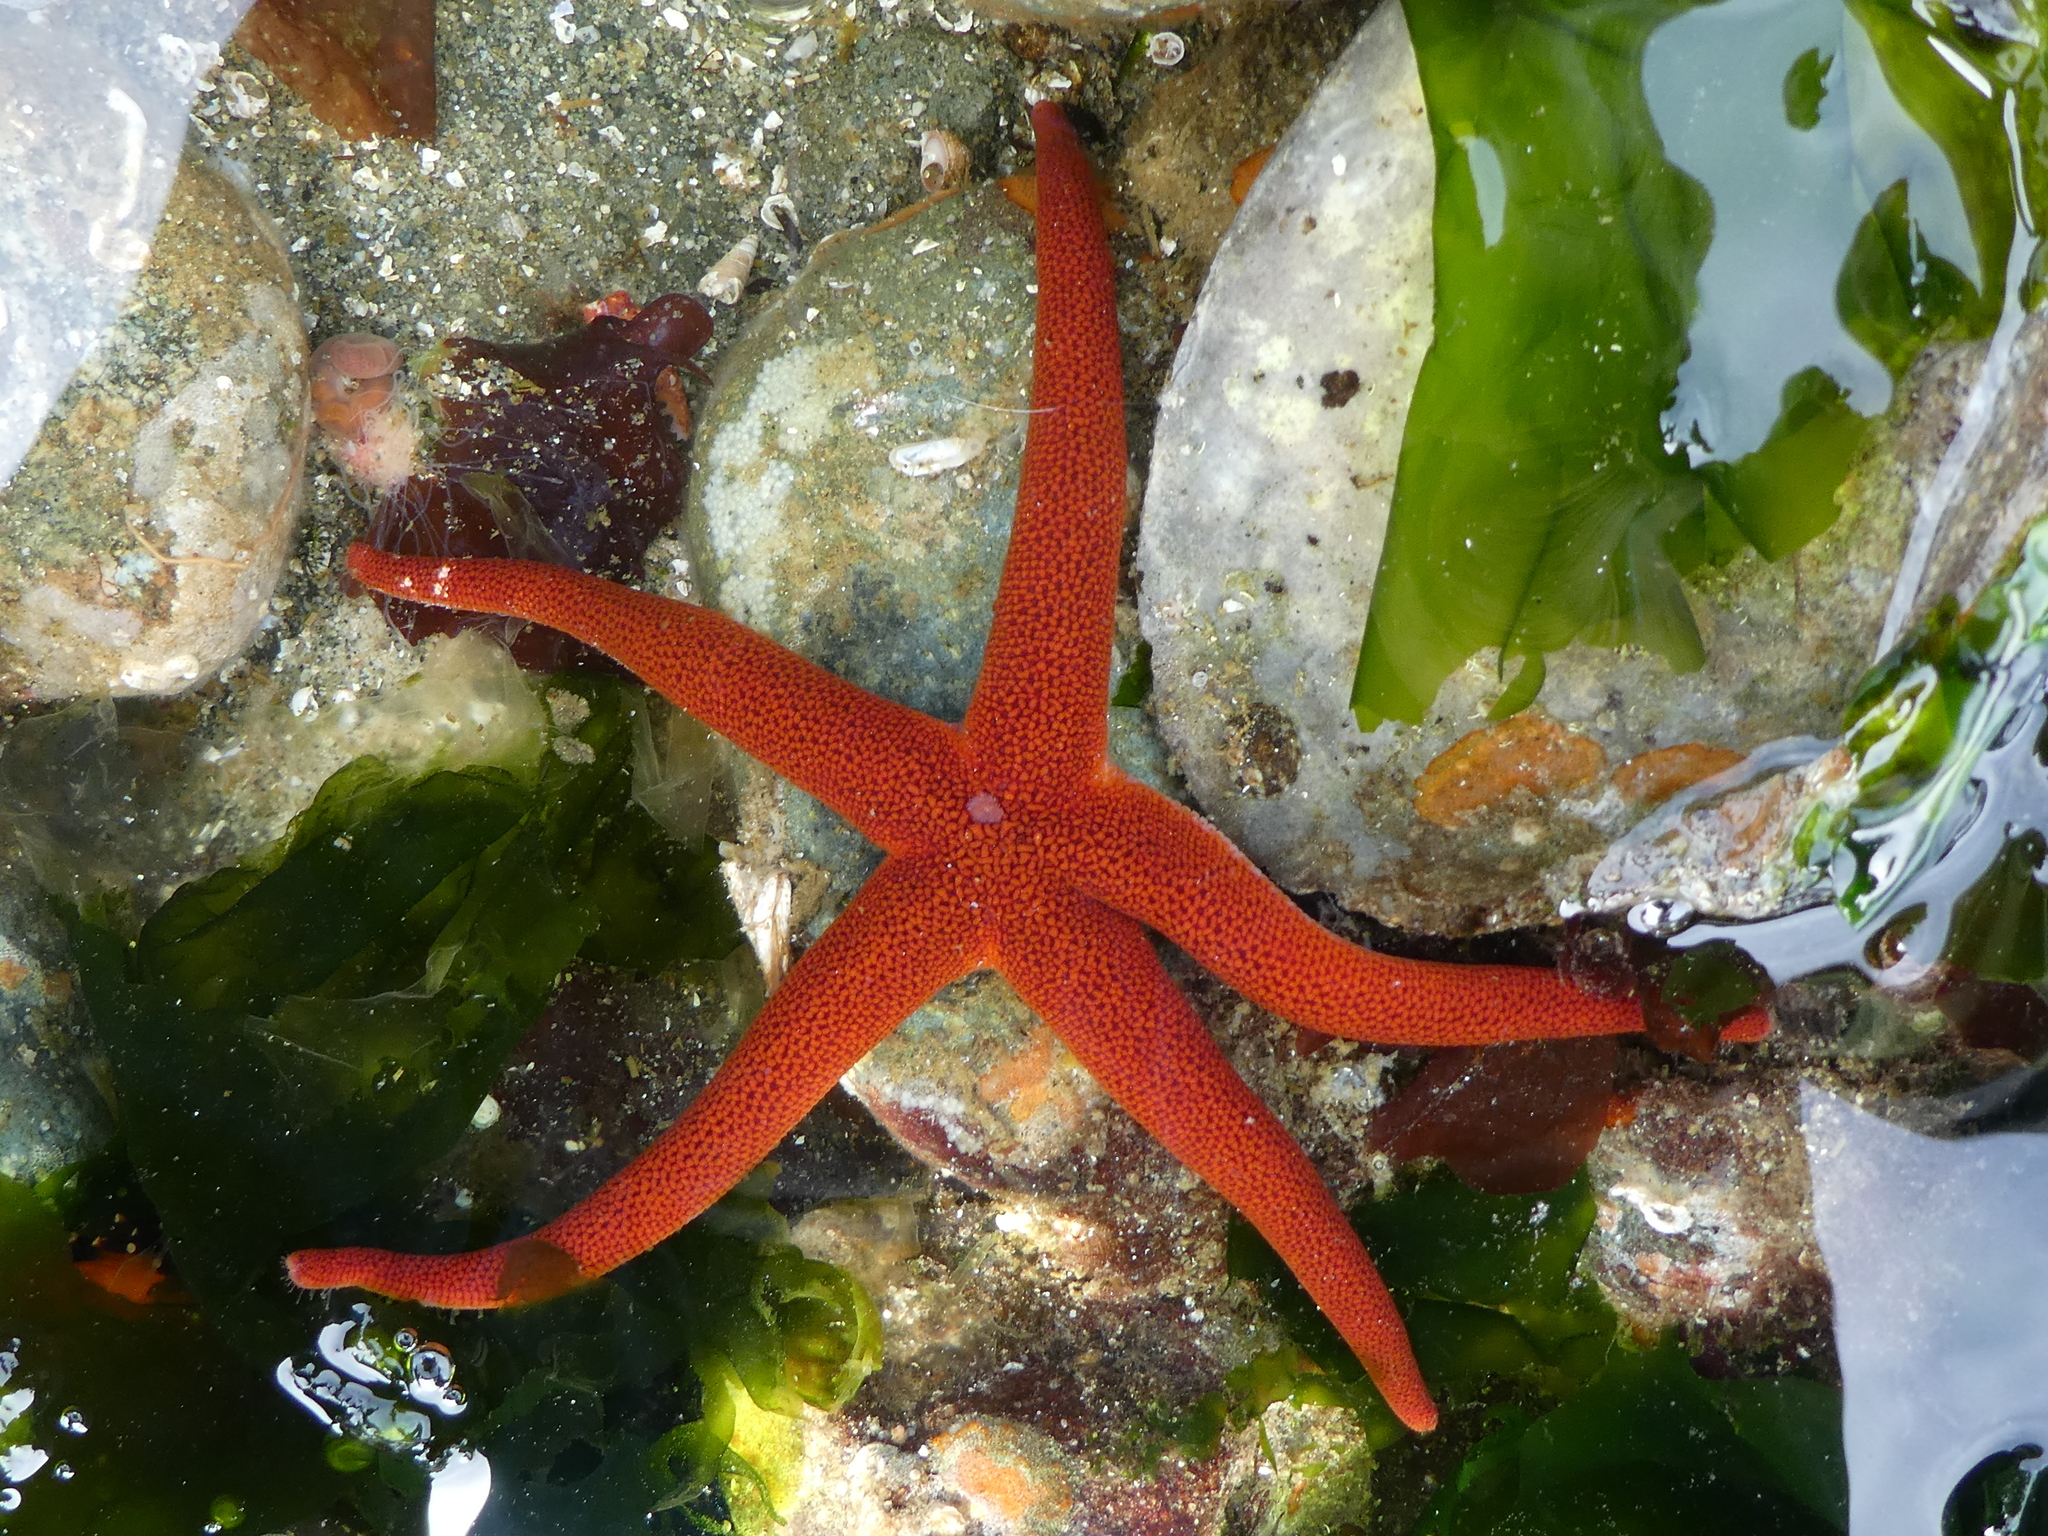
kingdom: Animalia
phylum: Echinodermata
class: Asteroidea
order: Spinulosida
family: Echinasteridae
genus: Henricia
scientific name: Henricia leviuscula
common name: Pacific blood star
